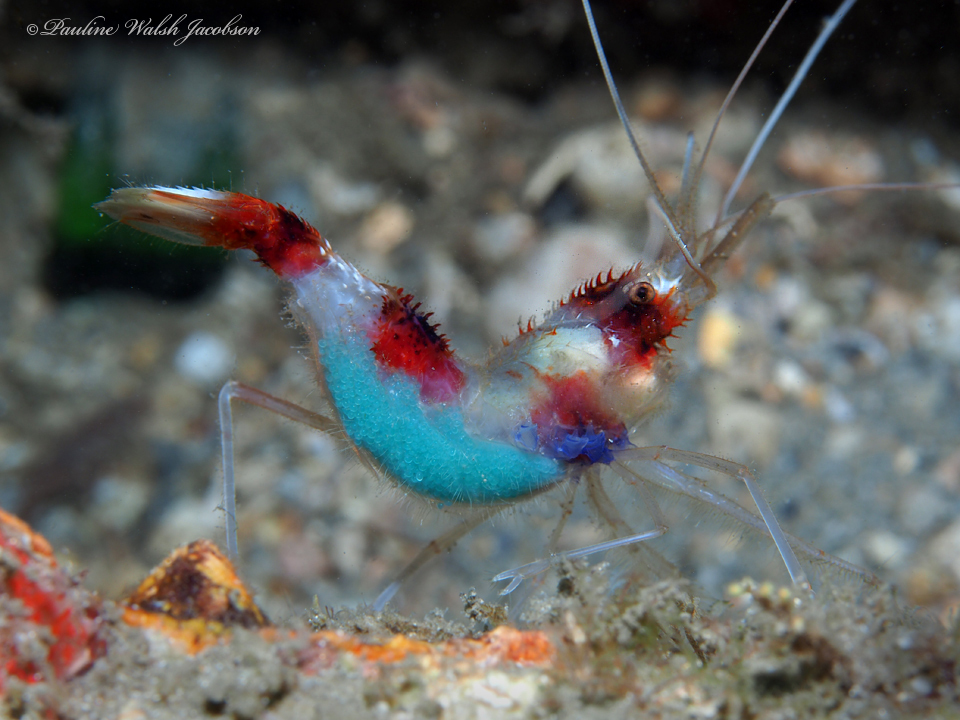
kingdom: Animalia
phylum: Arthropoda
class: Malacostraca
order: Decapoda
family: Stenopodidae
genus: Stenopus
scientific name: Stenopus hispidus
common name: Banded coral shrimp
